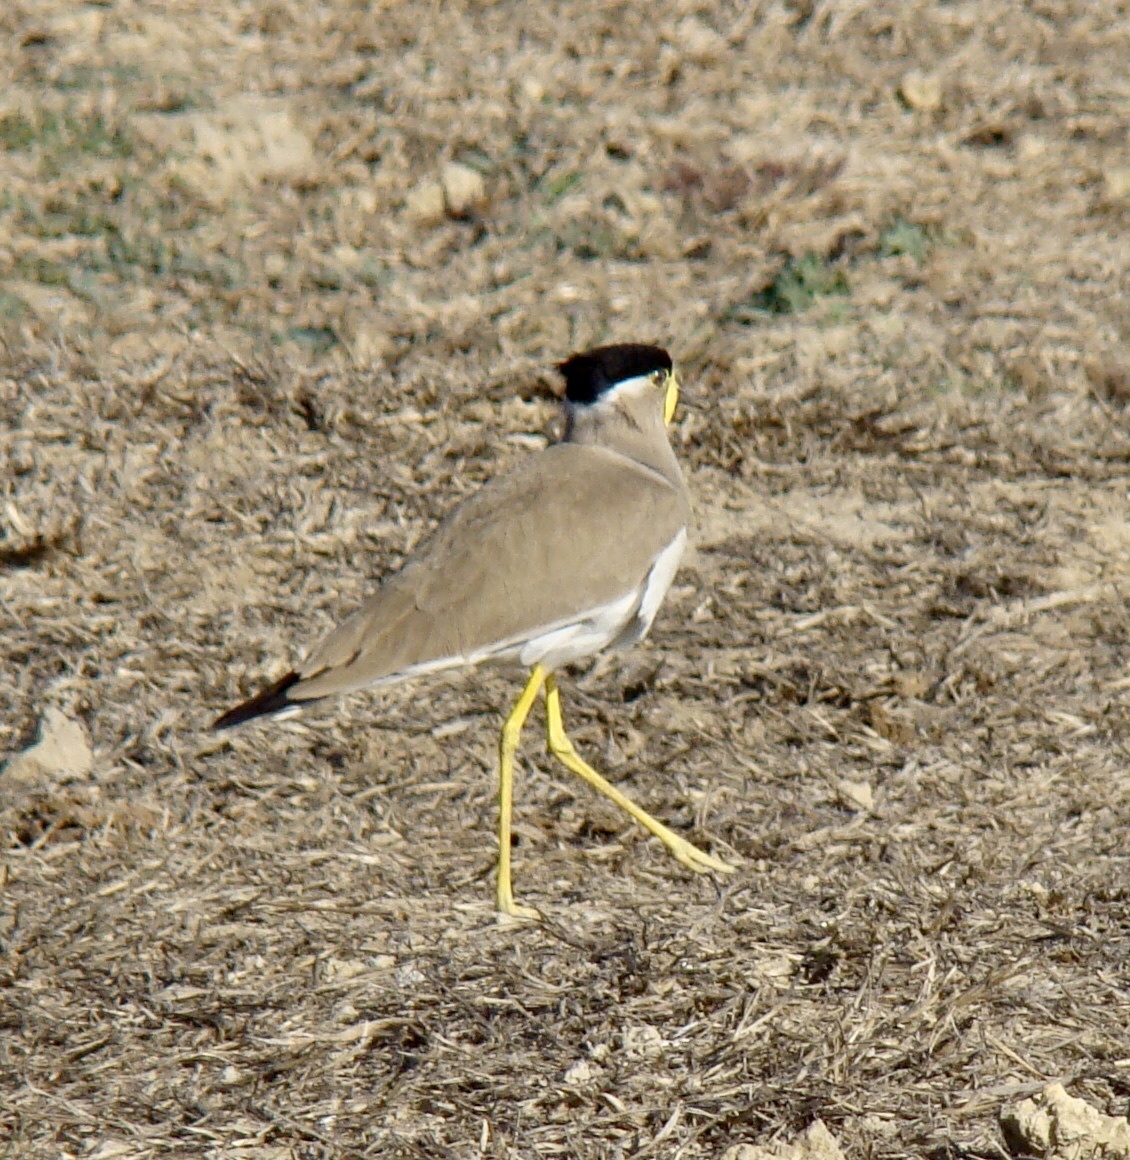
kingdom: Animalia
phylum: Chordata
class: Aves
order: Charadriiformes
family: Charadriidae
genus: Vanellus
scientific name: Vanellus malabaricus
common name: Yellow-wattled lapwing
